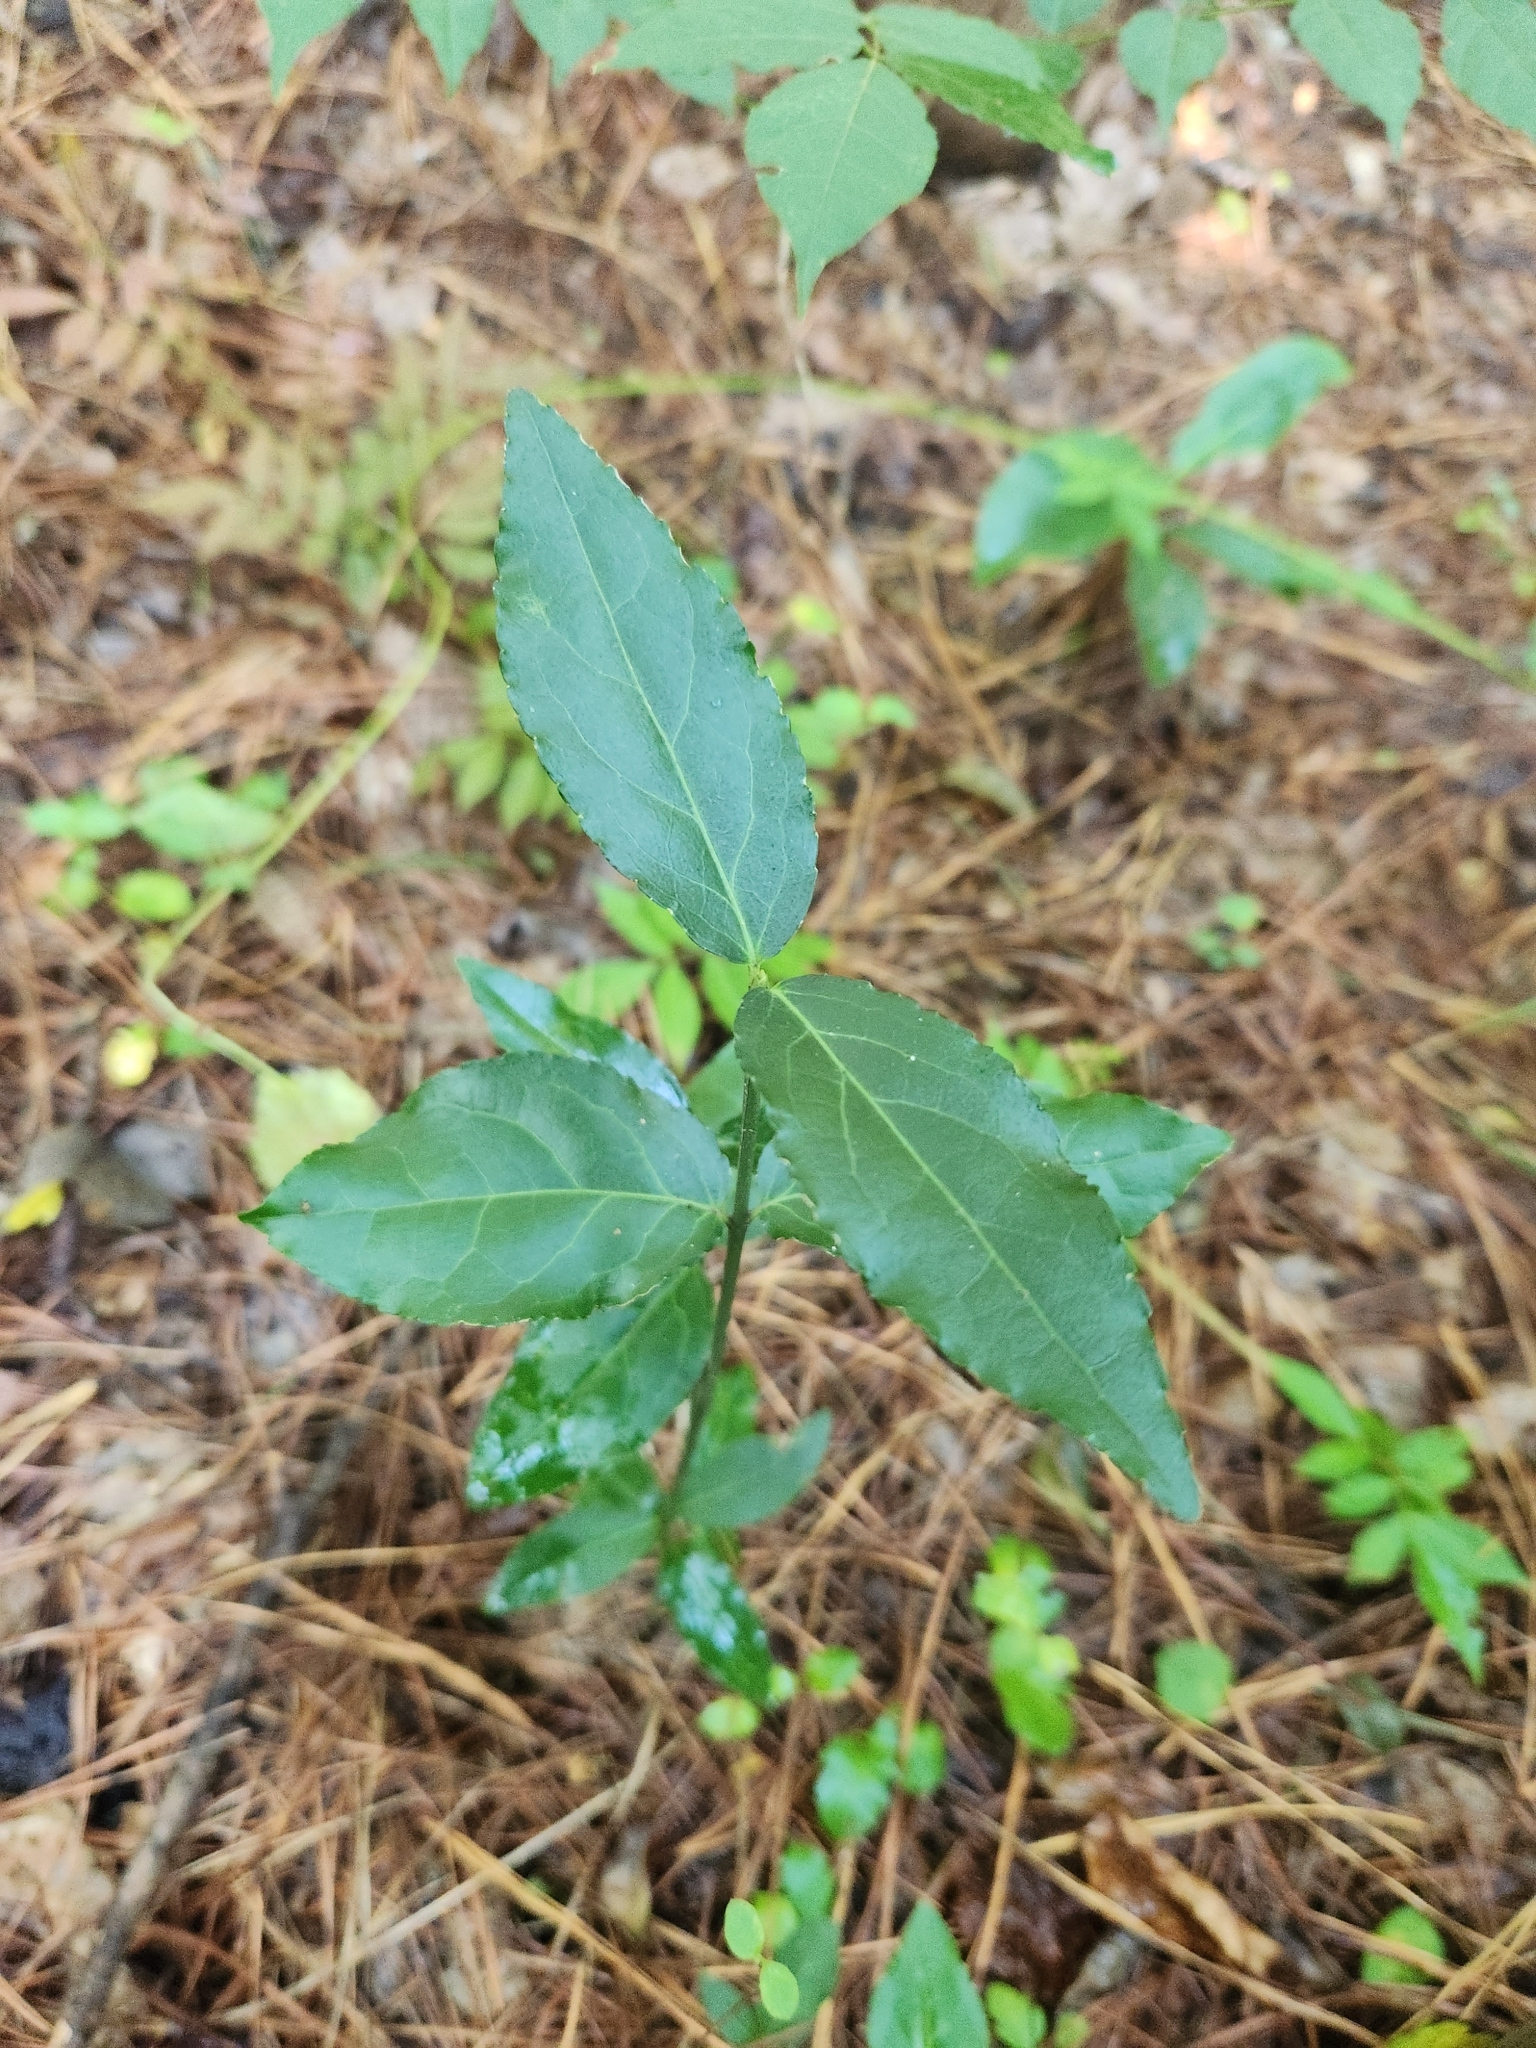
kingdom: Plantae
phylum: Tracheophyta
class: Magnoliopsida
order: Celastrales
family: Celastraceae
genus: Euonymus
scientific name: Euonymus americanus
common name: Bursting-heart
